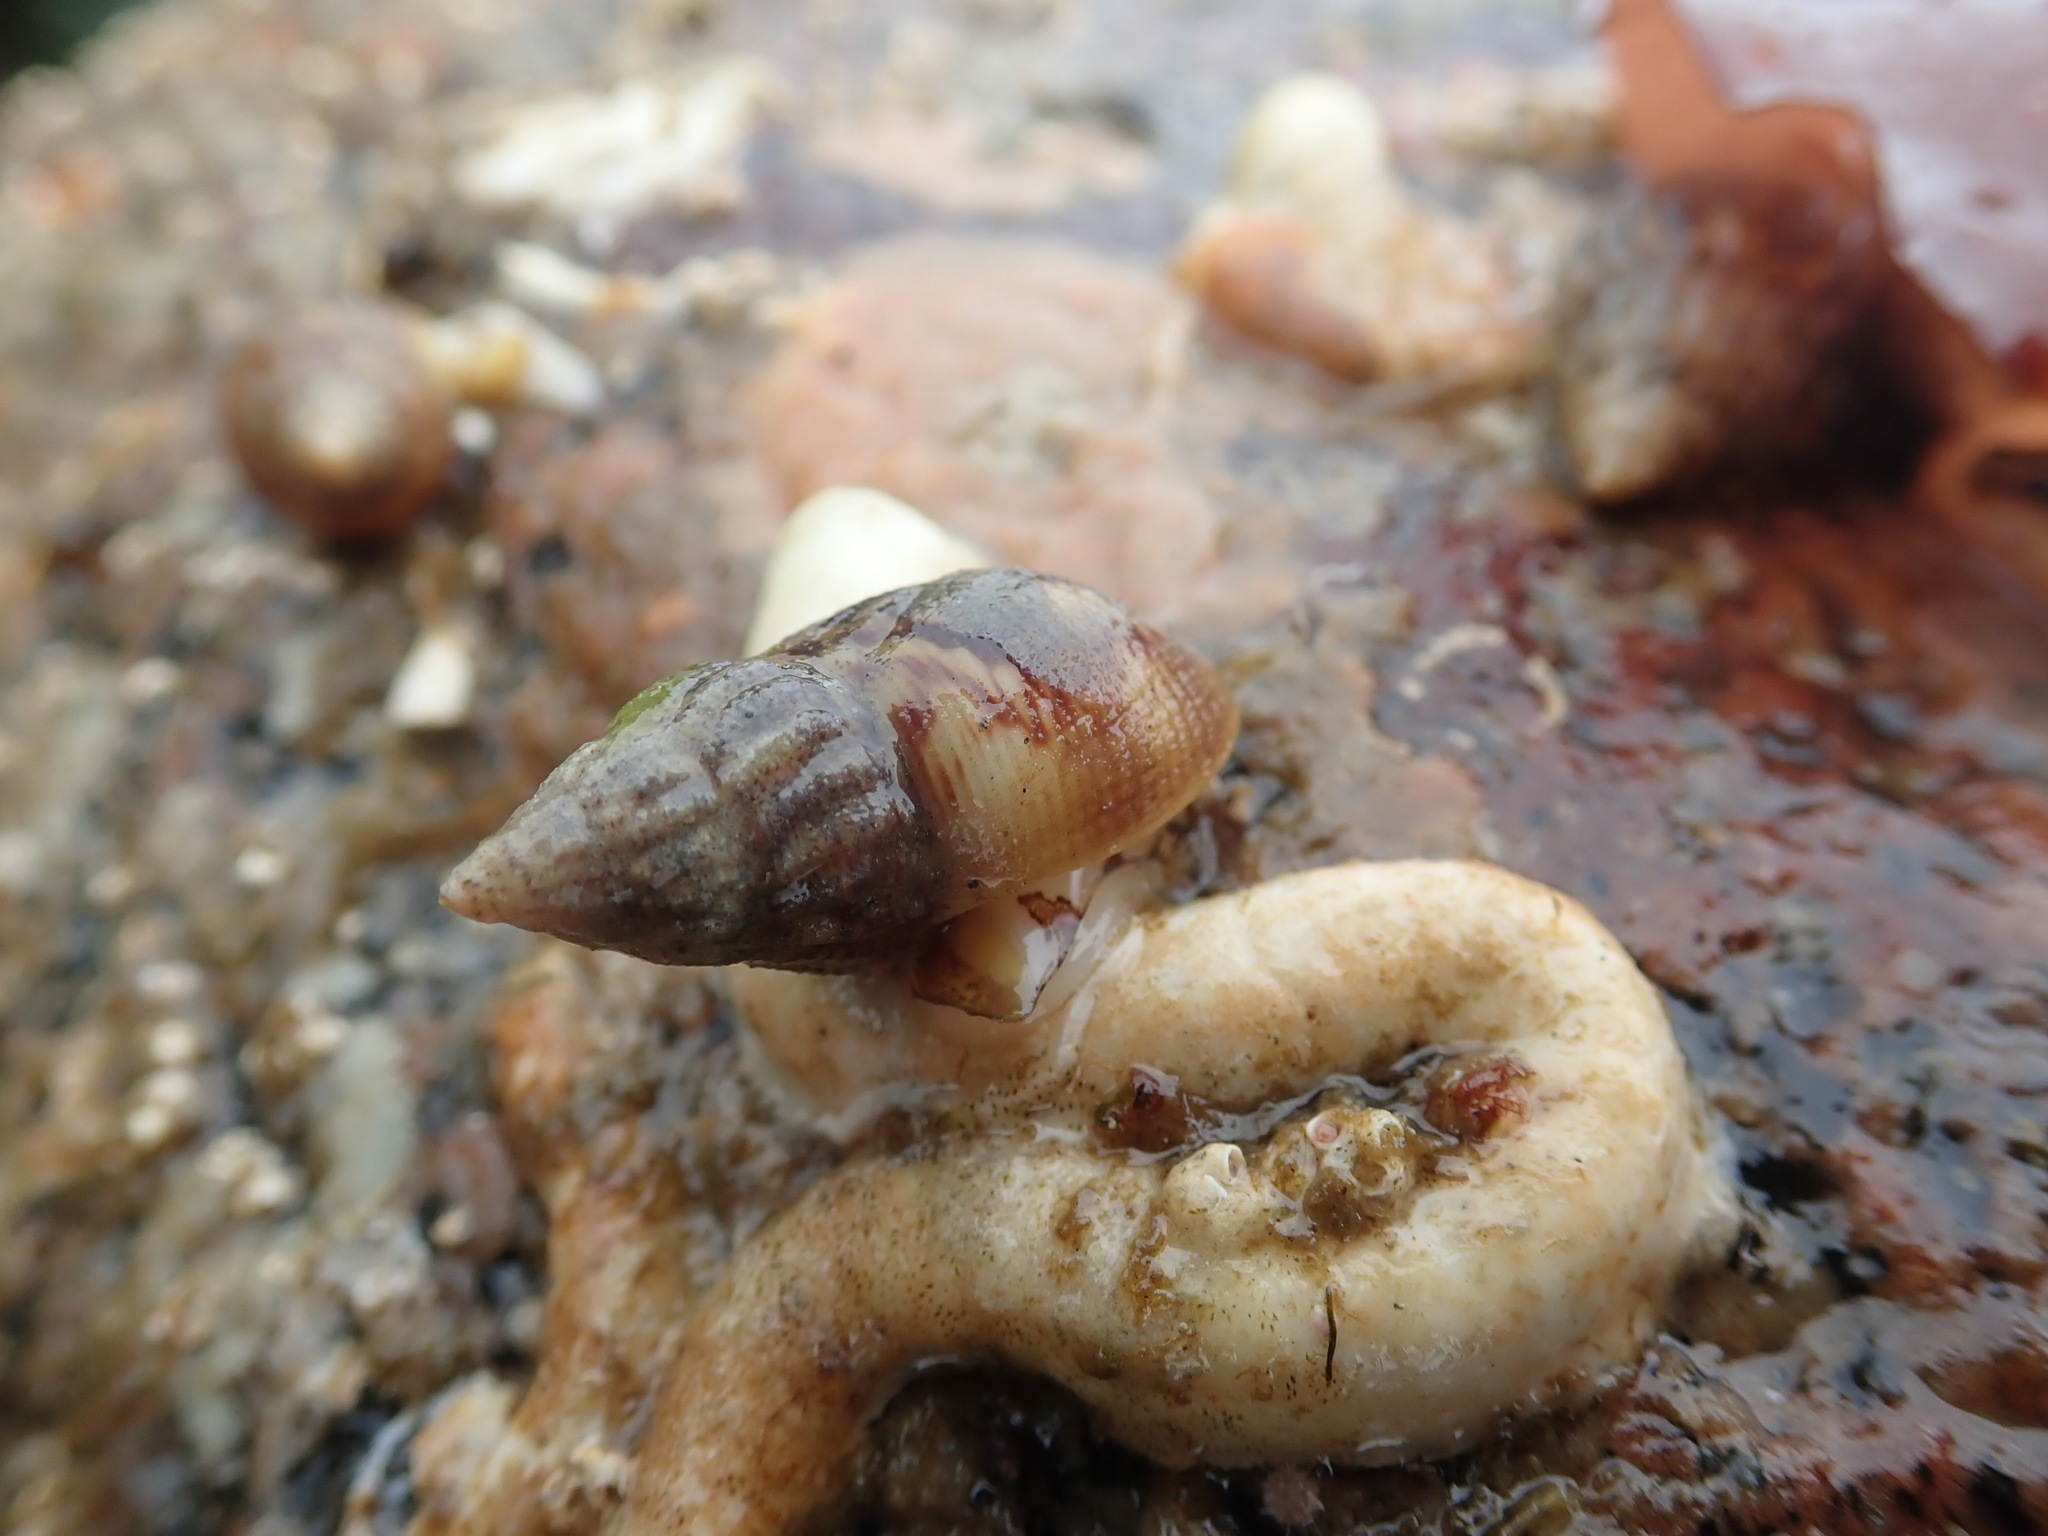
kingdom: Animalia
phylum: Mollusca
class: Gastropoda
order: Neogastropoda
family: Columbellidae
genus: Amphissa
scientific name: Amphissa columbiana
